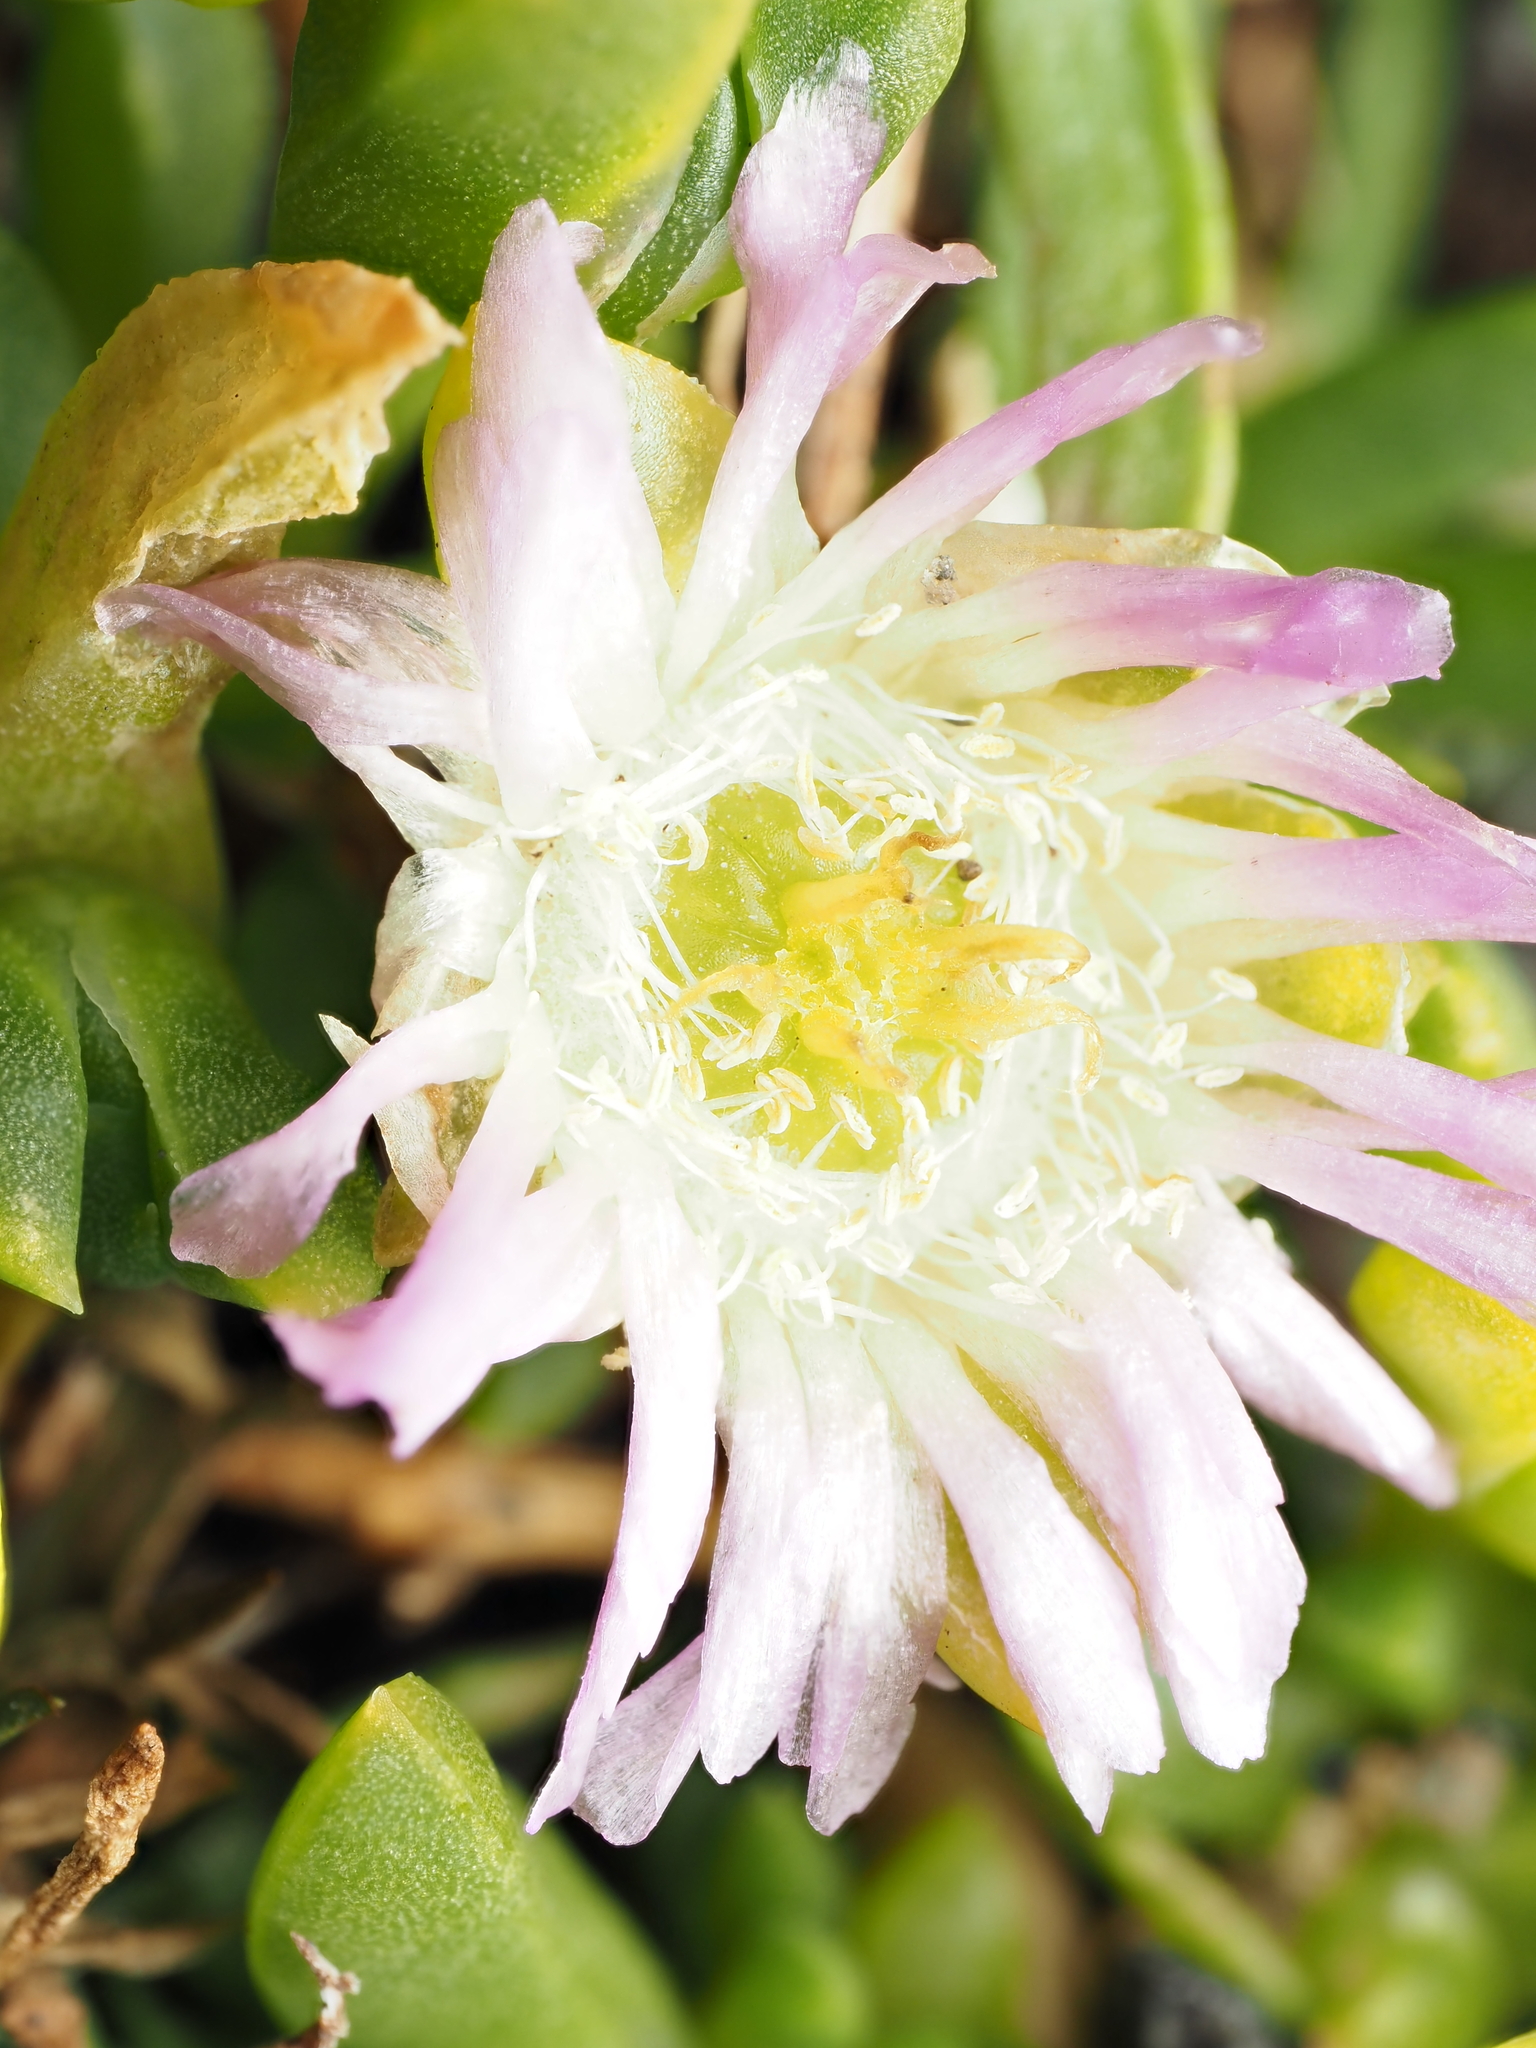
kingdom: Plantae
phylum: Tracheophyta
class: Magnoliopsida
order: Caryophyllales
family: Aizoaceae
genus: Disphyma
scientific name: Disphyma australe
